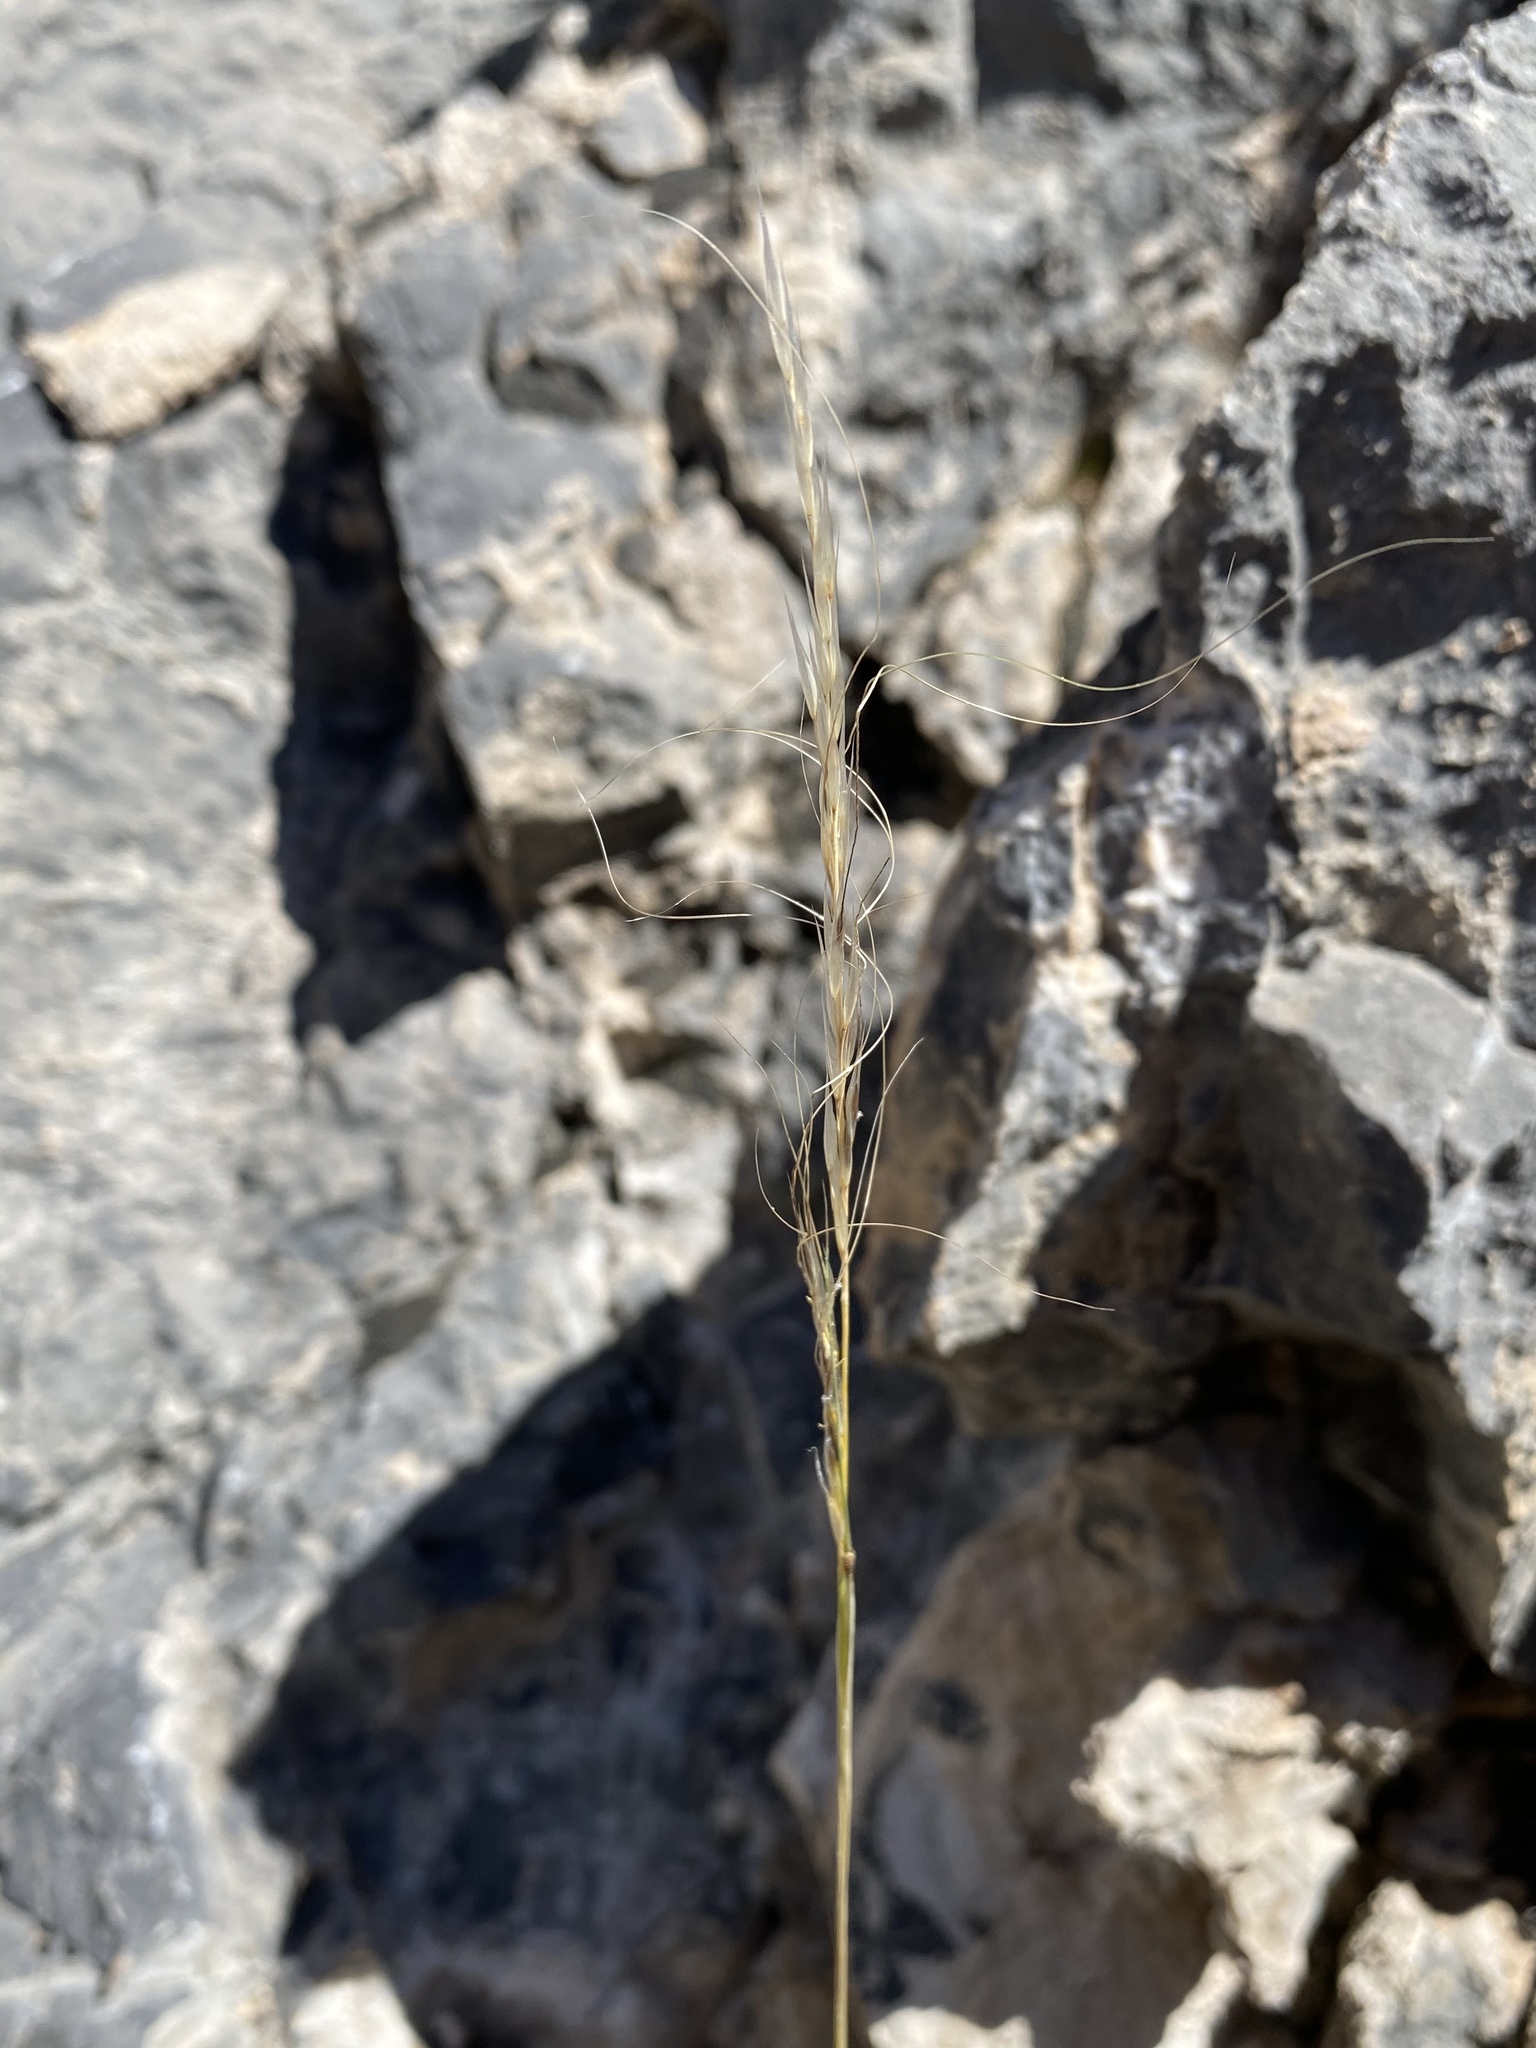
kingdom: Plantae
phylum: Tracheophyta
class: Liliopsida
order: Poales
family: Poaceae
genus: Eriocoma
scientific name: Eriocoma arida
